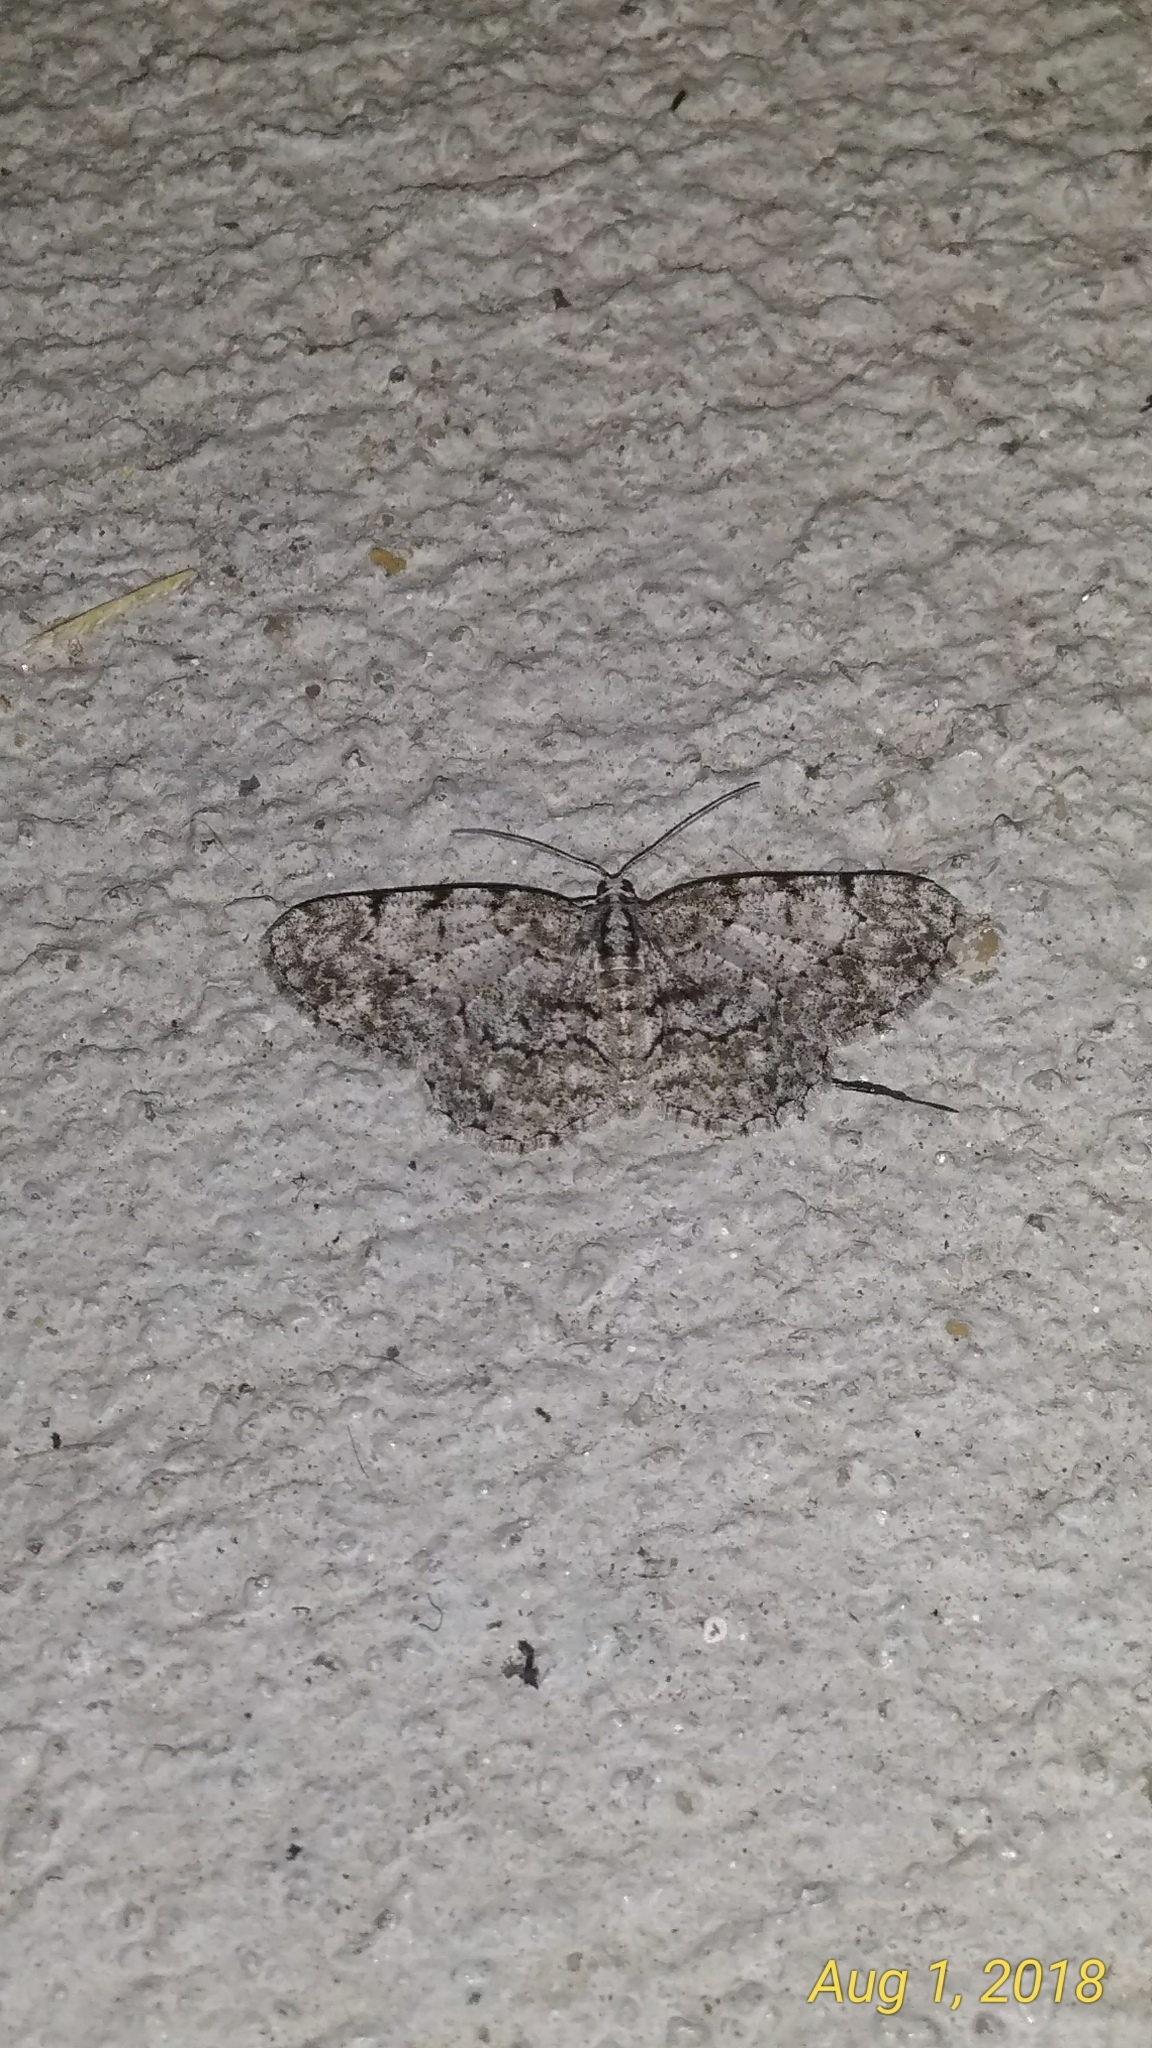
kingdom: Animalia
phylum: Arthropoda
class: Insecta
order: Lepidoptera
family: Geometridae
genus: Protoboarmia
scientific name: Protoboarmia porcelaria
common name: Porcelain gray
